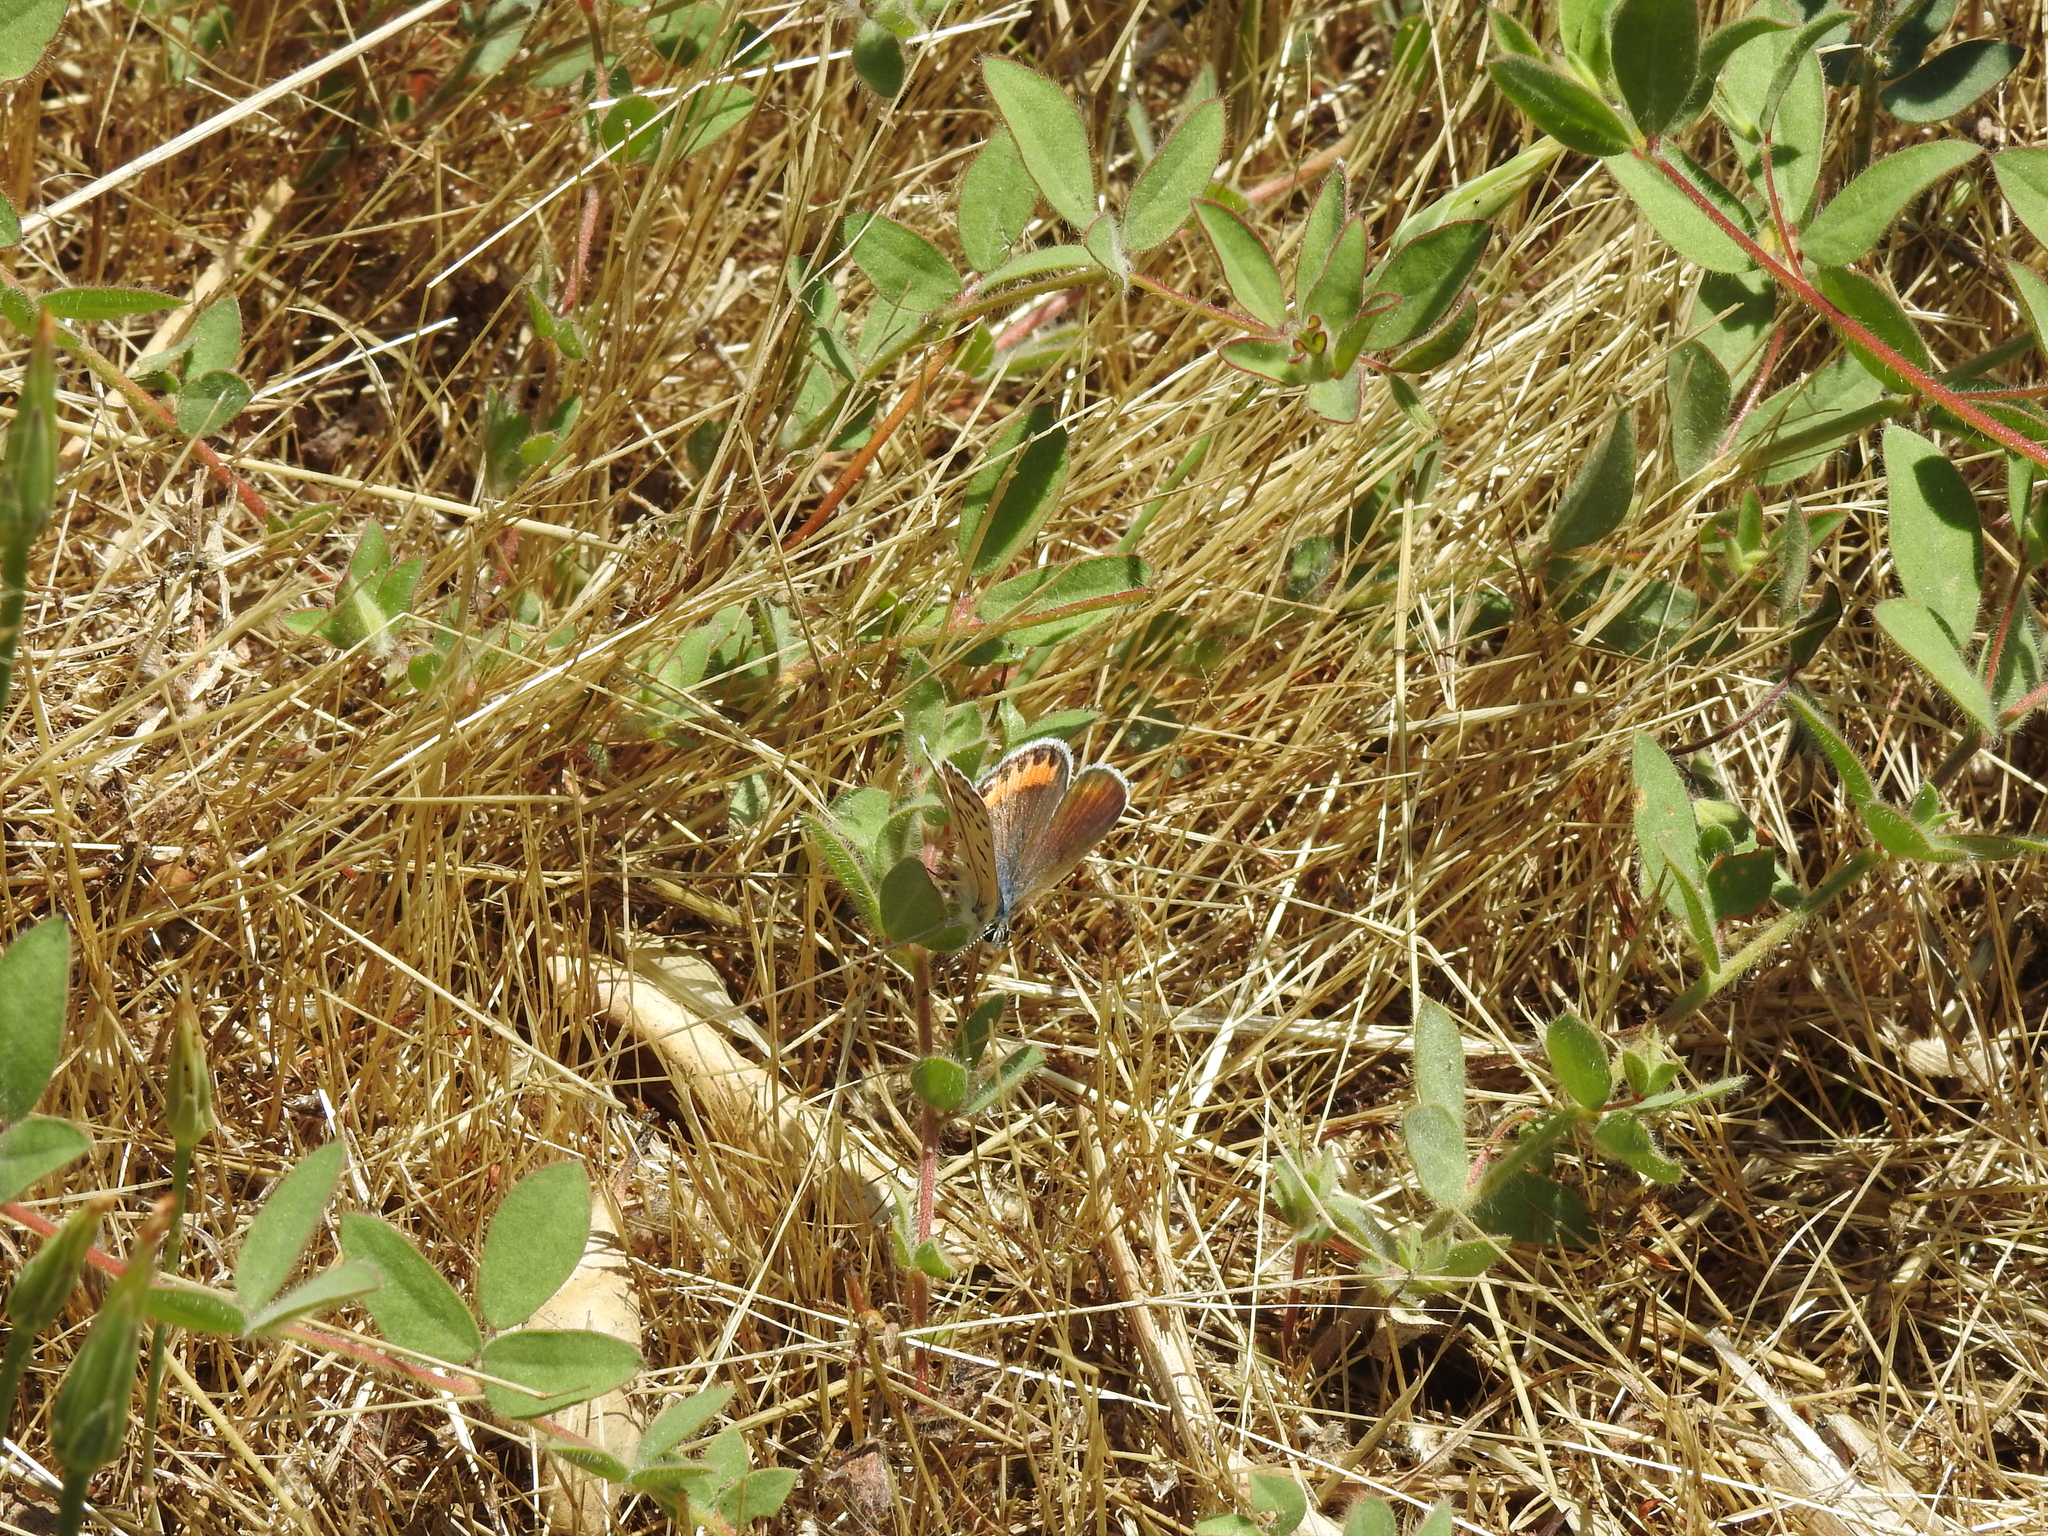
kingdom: Animalia
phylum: Arthropoda
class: Insecta
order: Lepidoptera
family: Lycaenidae
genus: Icaricia
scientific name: Icaricia acmon
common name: Acmon blue
